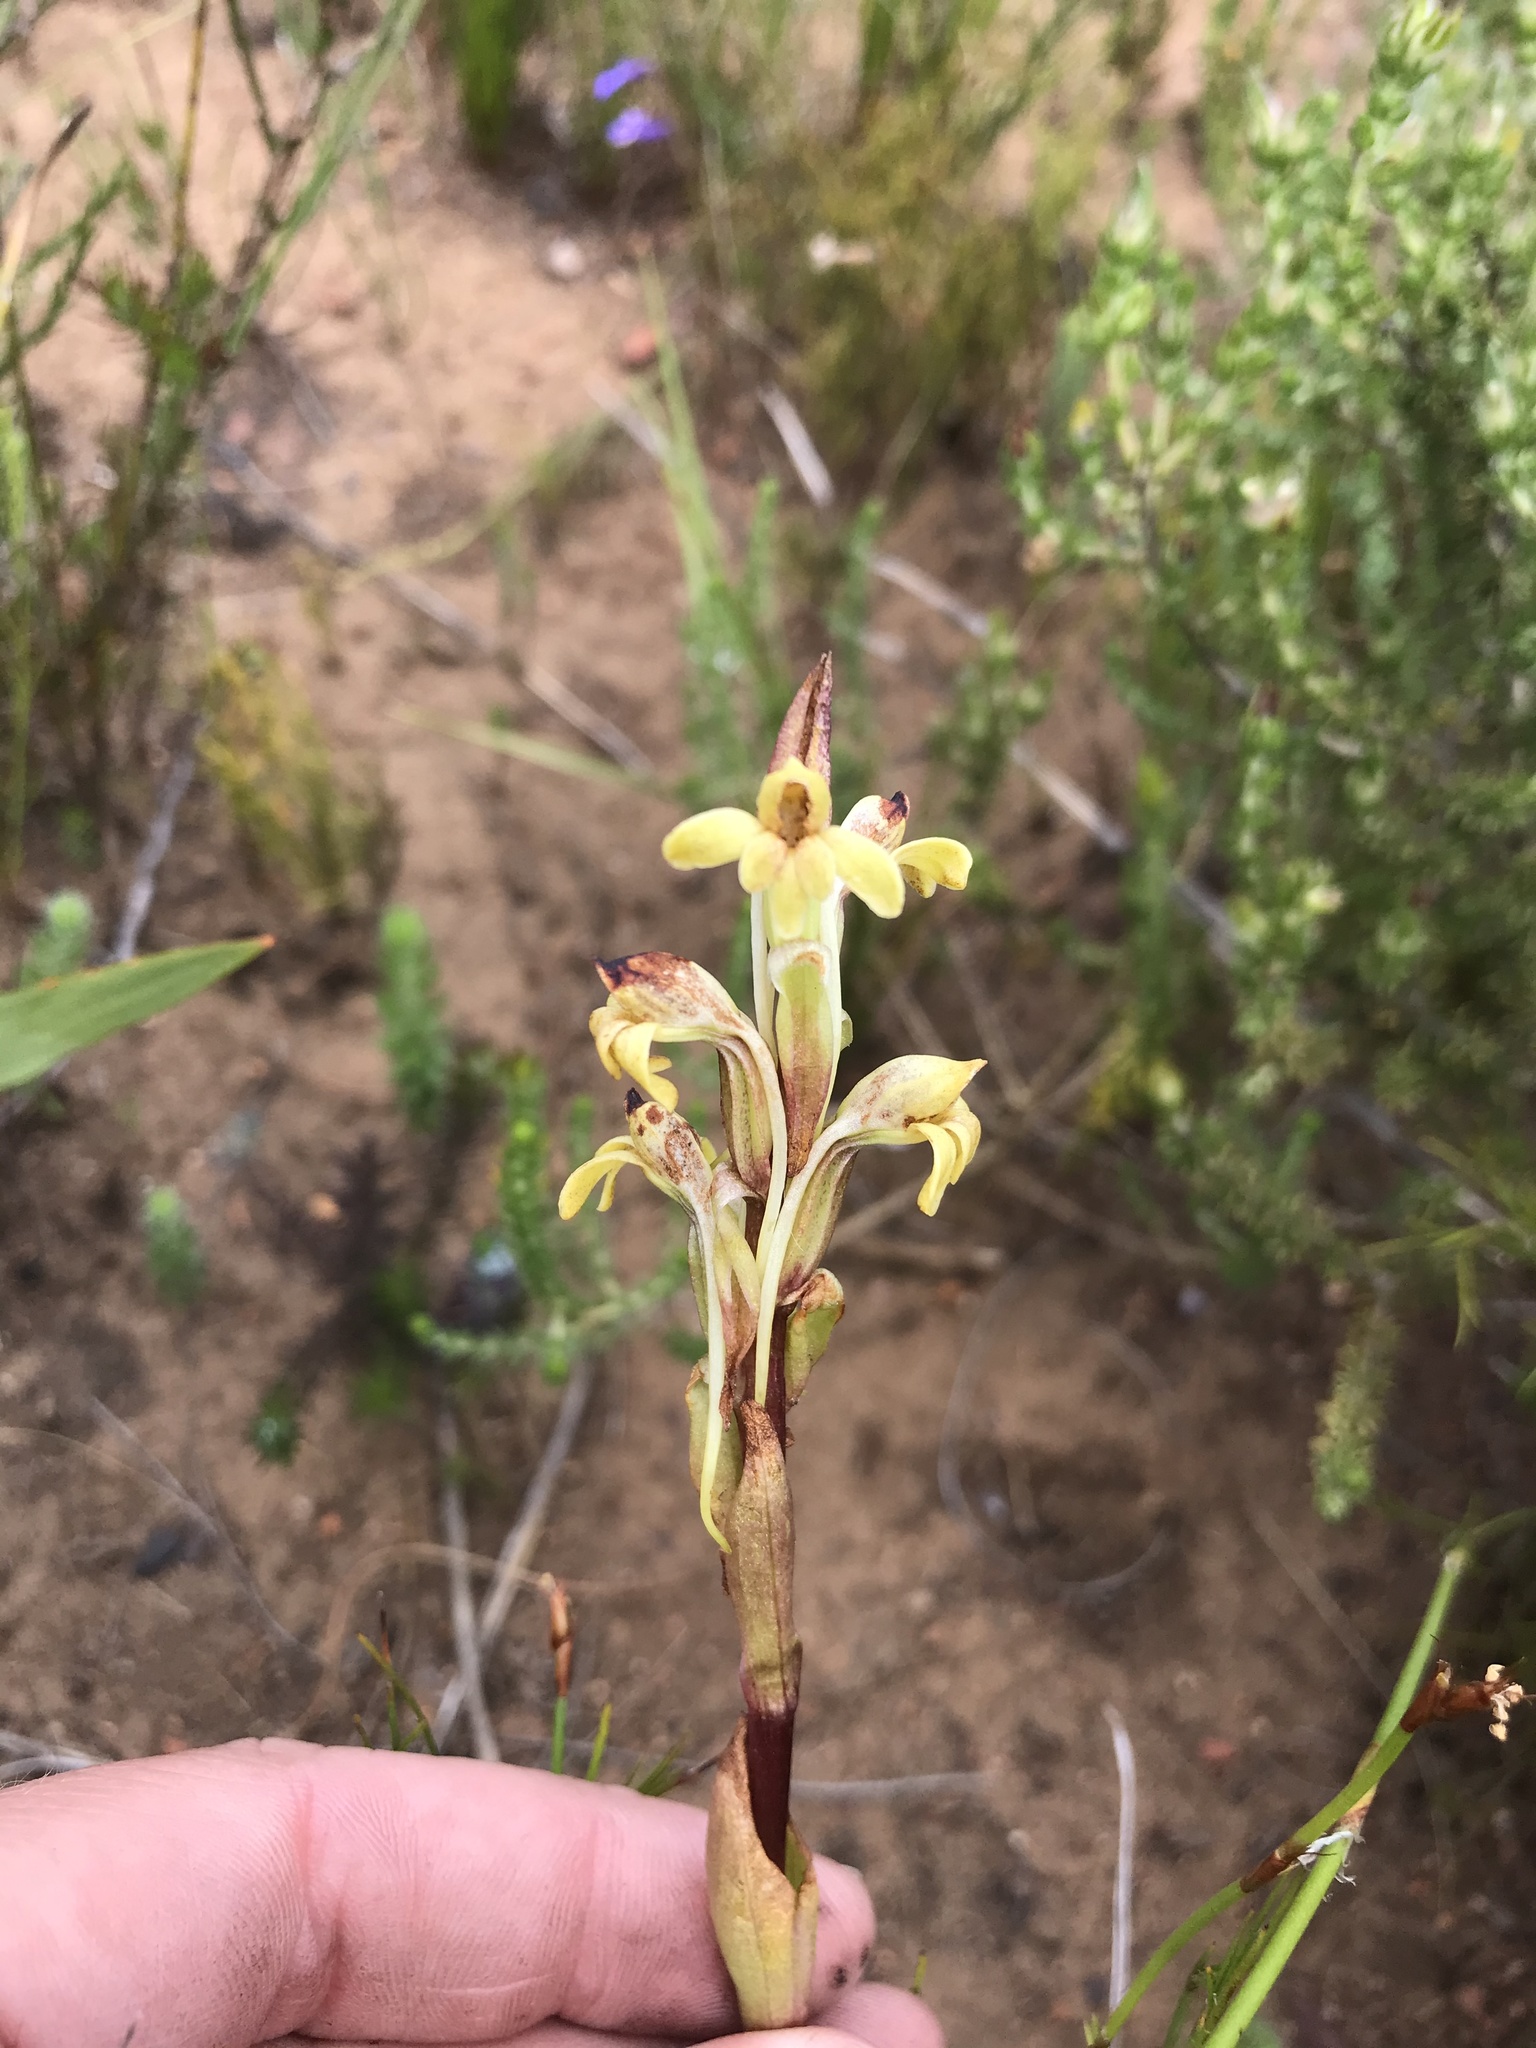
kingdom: Plantae
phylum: Tracheophyta
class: Liliopsida
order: Asparagales
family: Orchidaceae
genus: Satyrium
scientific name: Satyrium bicorne
